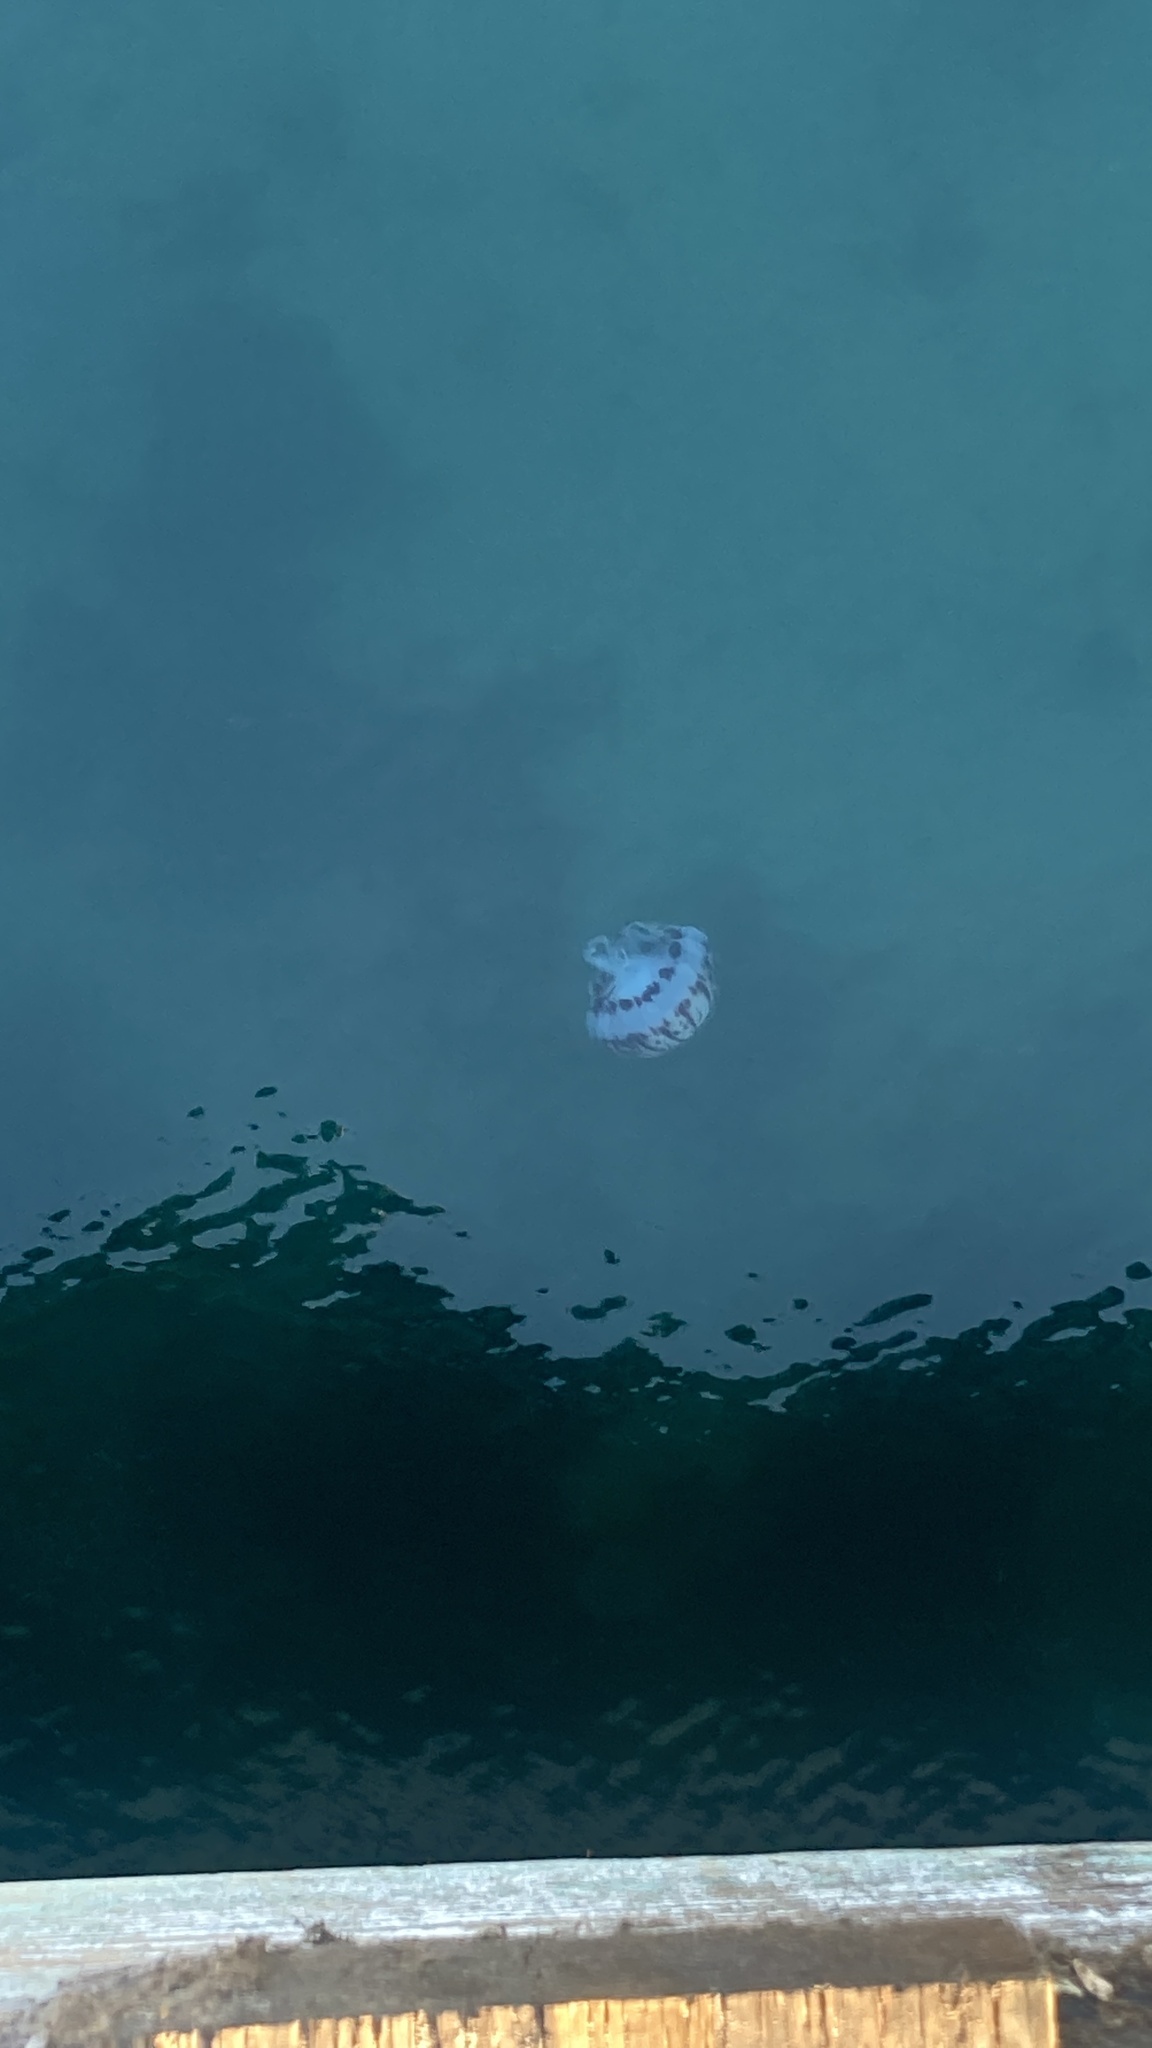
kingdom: Animalia
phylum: Cnidaria
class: Scyphozoa
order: Semaeostomeae
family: Pelagiidae
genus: Chrysaora
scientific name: Chrysaora colorata
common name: Purple-striped jellyfish
